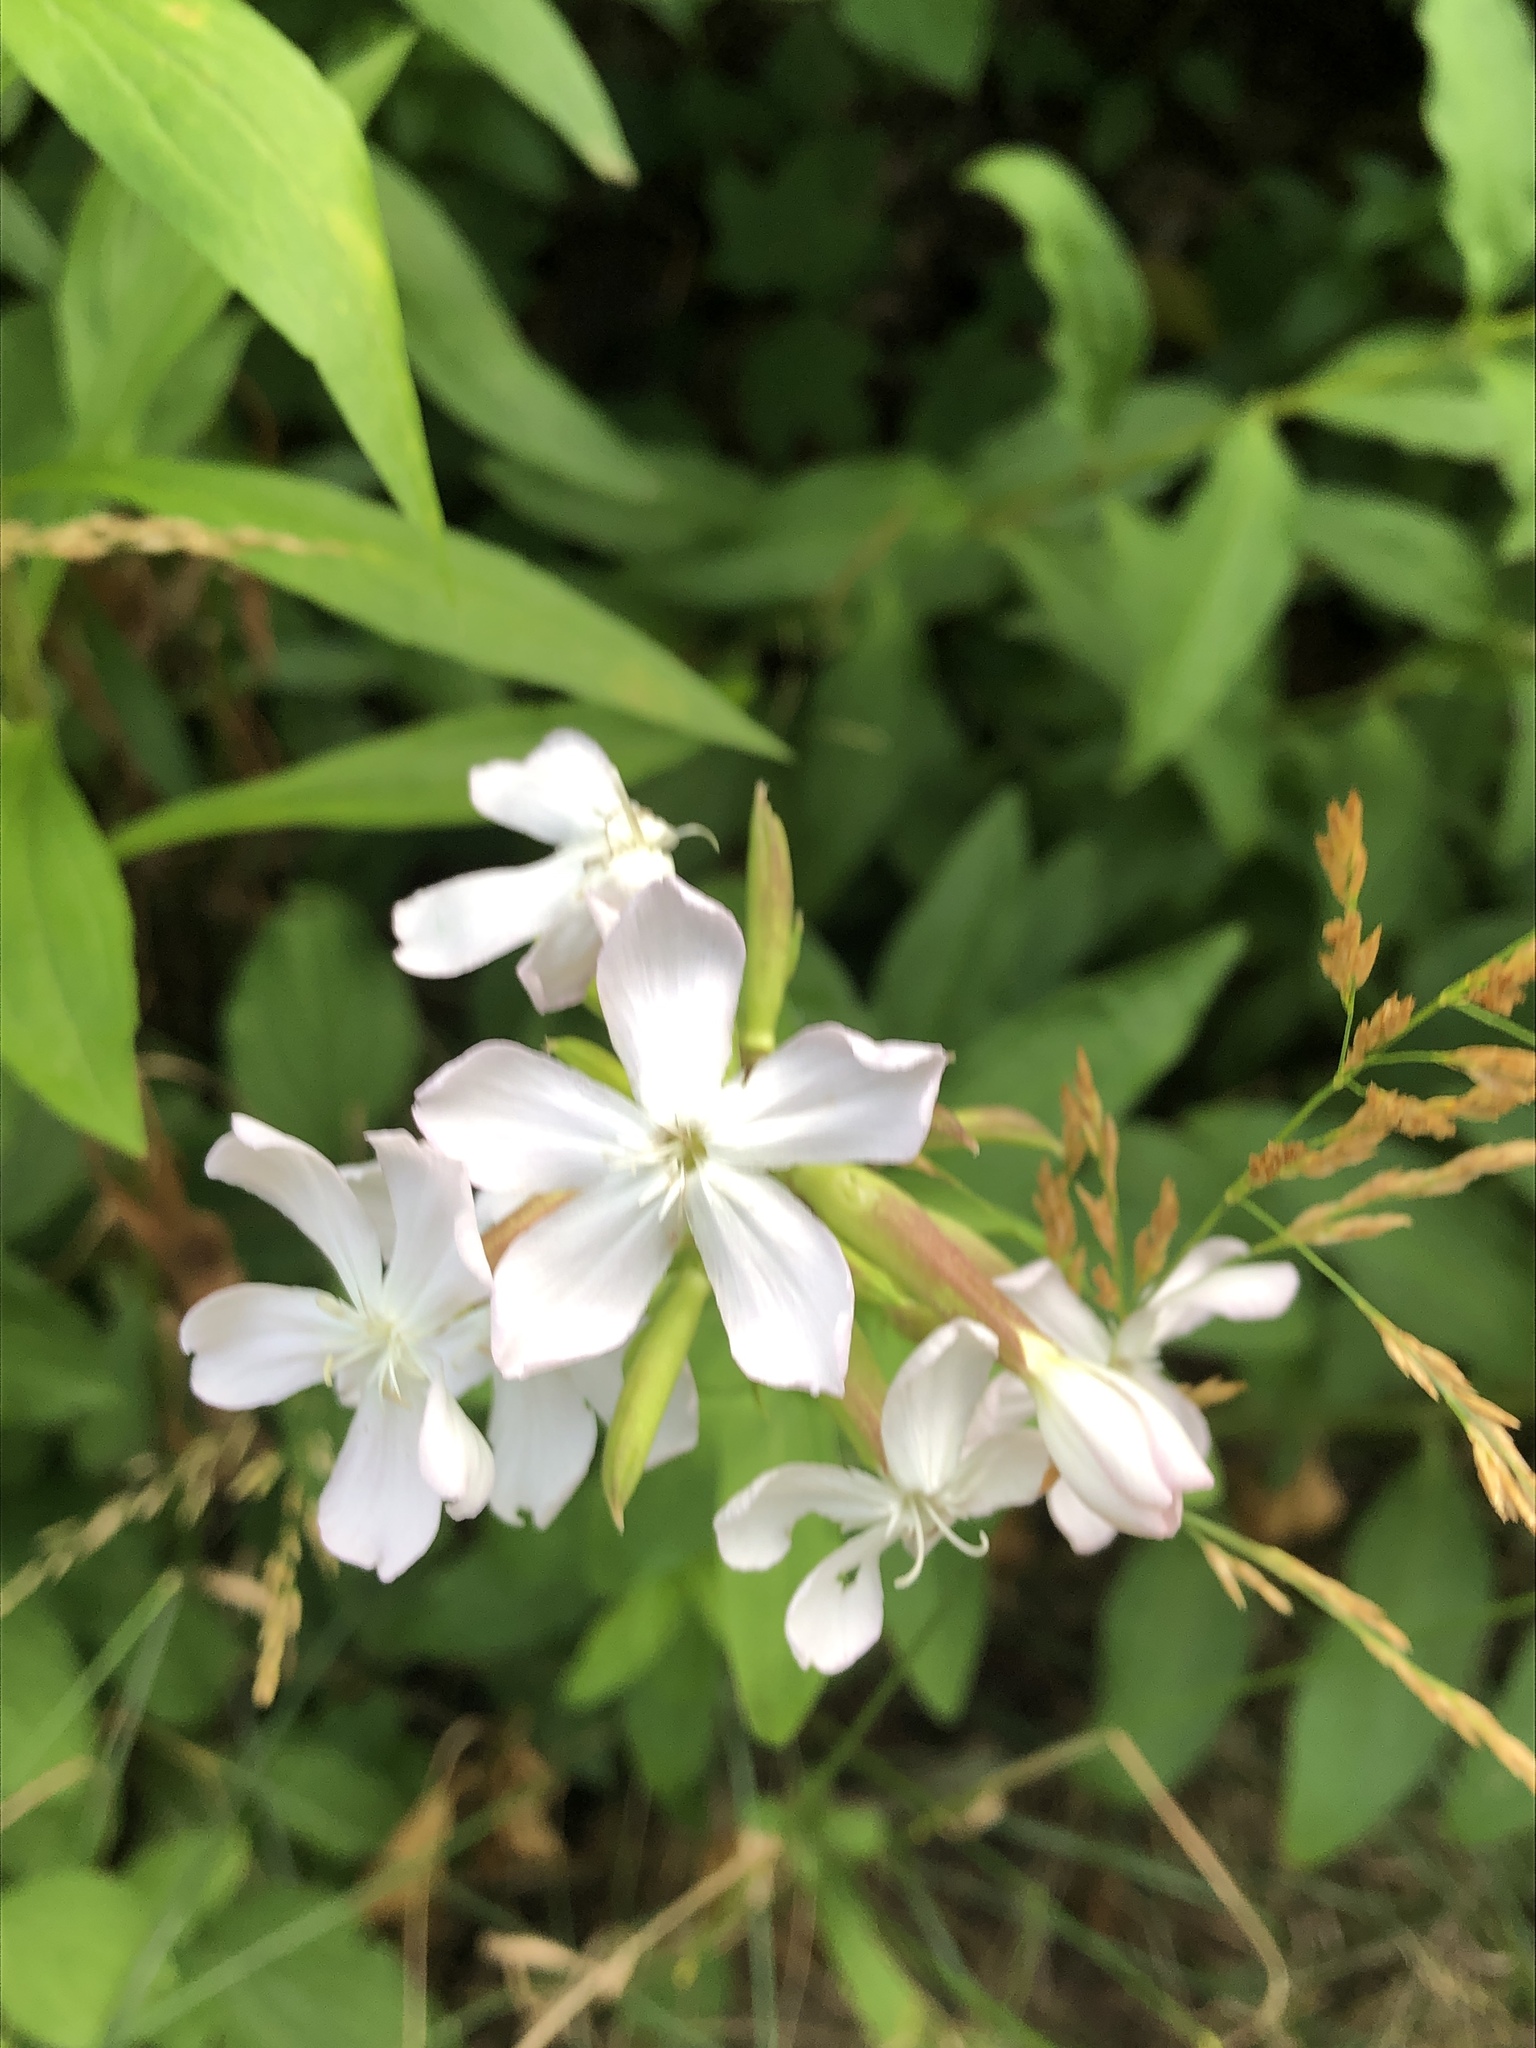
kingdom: Plantae
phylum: Tracheophyta
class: Magnoliopsida
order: Caryophyllales
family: Caryophyllaceae
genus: Saponaria
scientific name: Saponaria officinalis
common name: Soapwort
